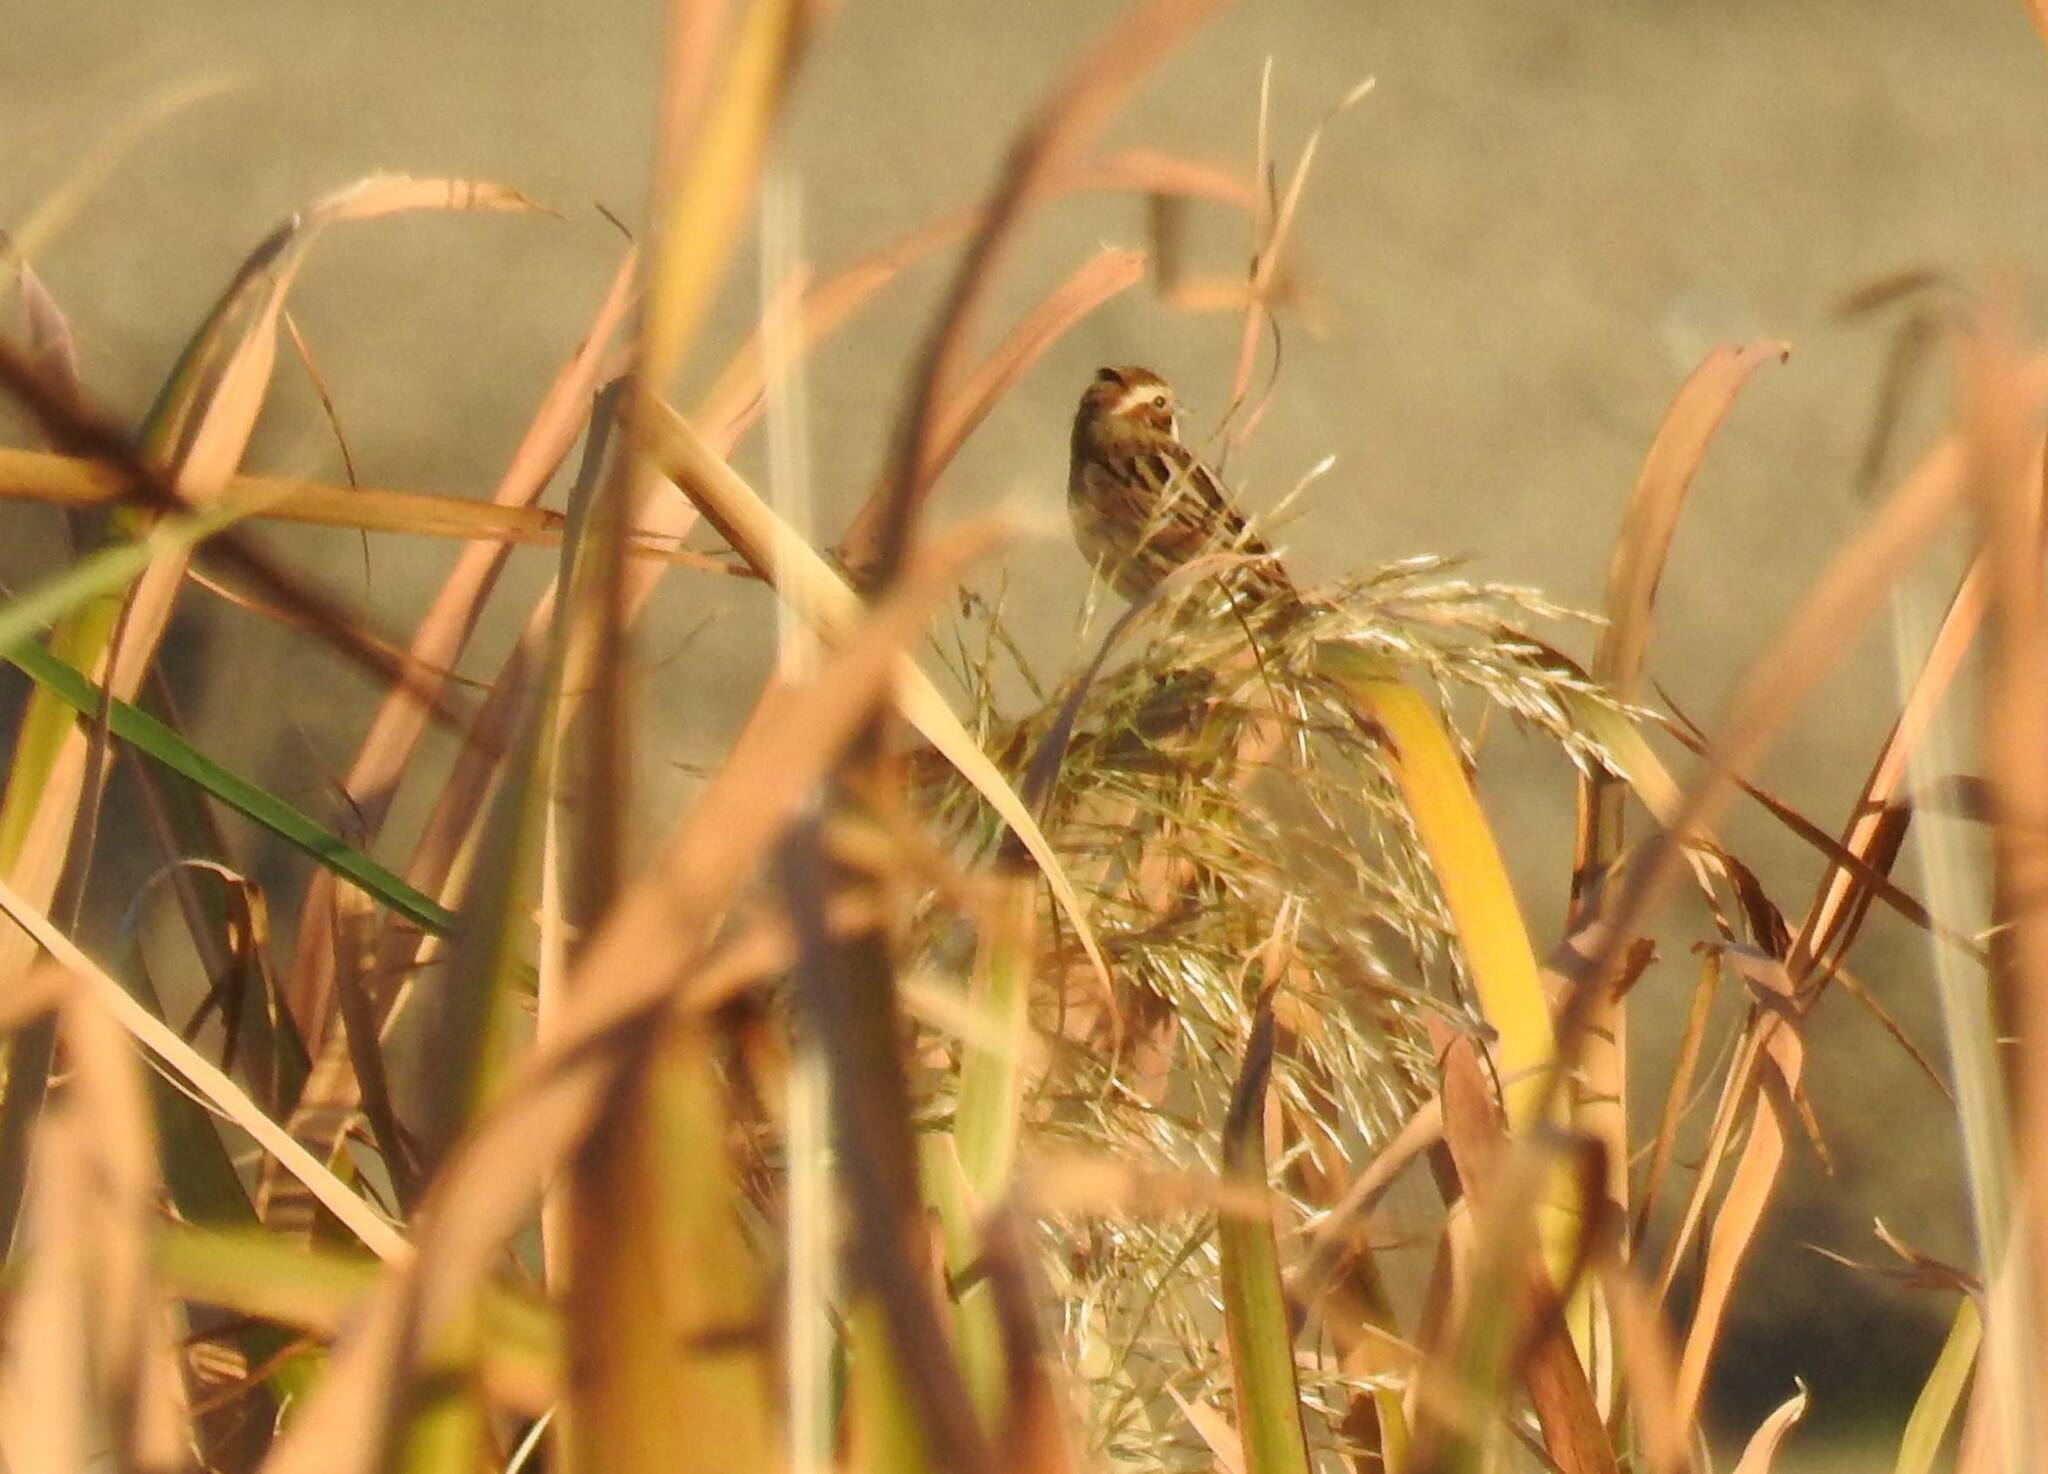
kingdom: Animalia
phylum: Chordata
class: Aves
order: Passeriformes
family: Emberizidae
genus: Emberiza
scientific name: Emberiza schoeniclus
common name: Reed bunting
